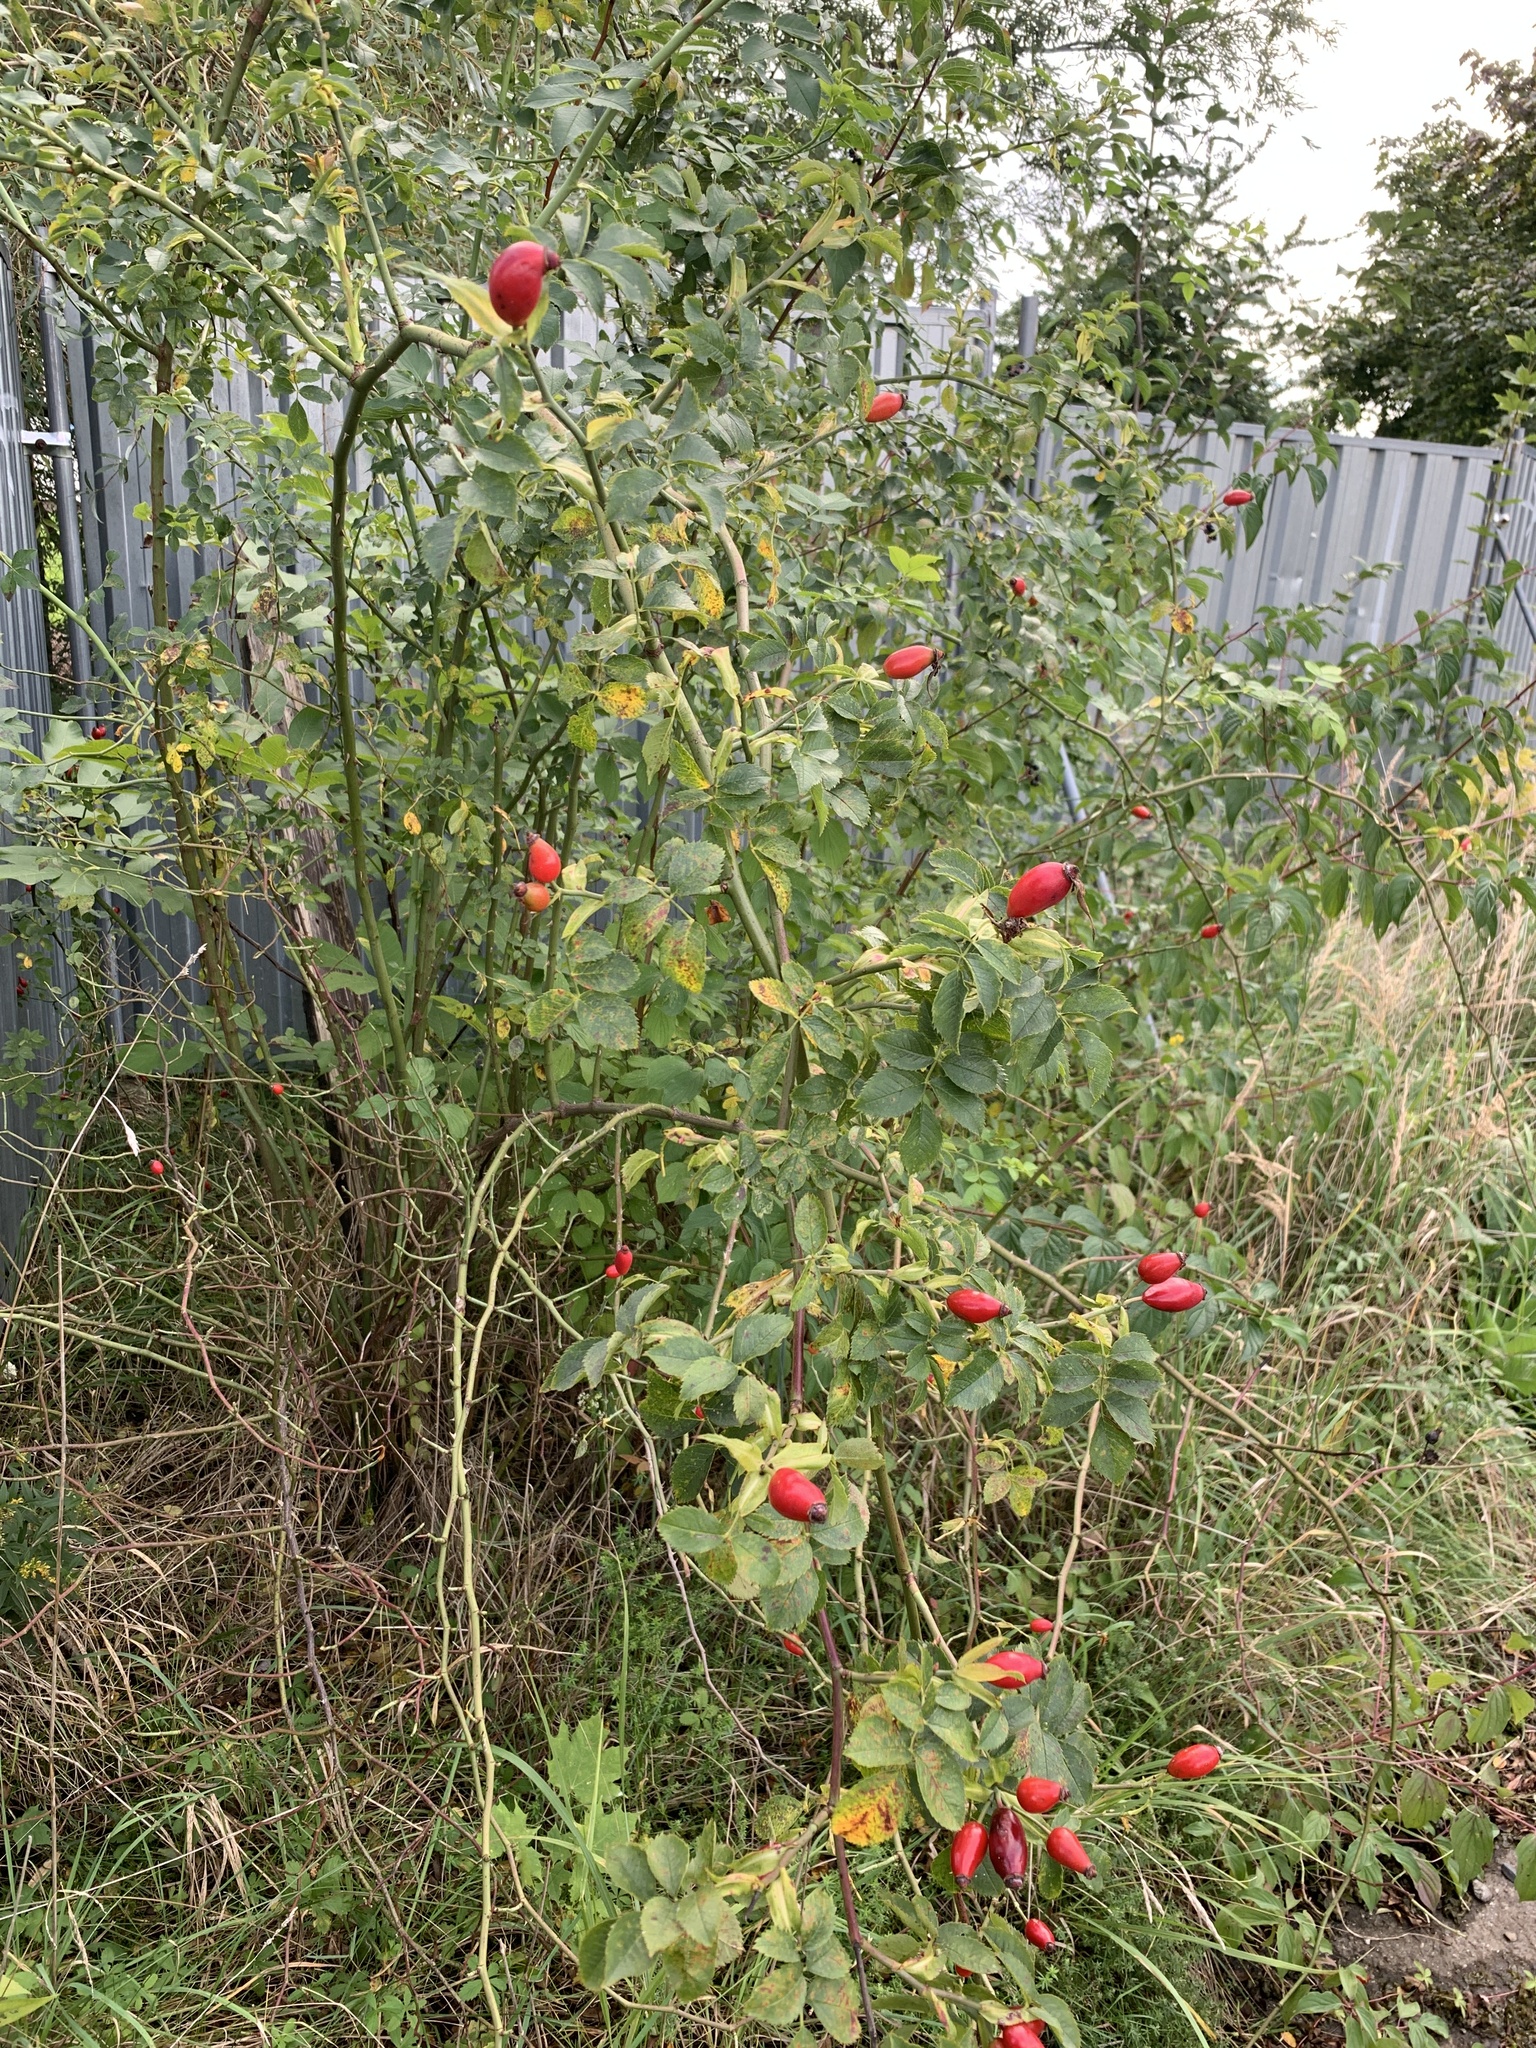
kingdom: Plantae
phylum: Tracheophyta
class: Magnoliopsida
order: Rosales
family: Rosaceae
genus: Rosa
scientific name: Rosa canina
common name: Dog rose
